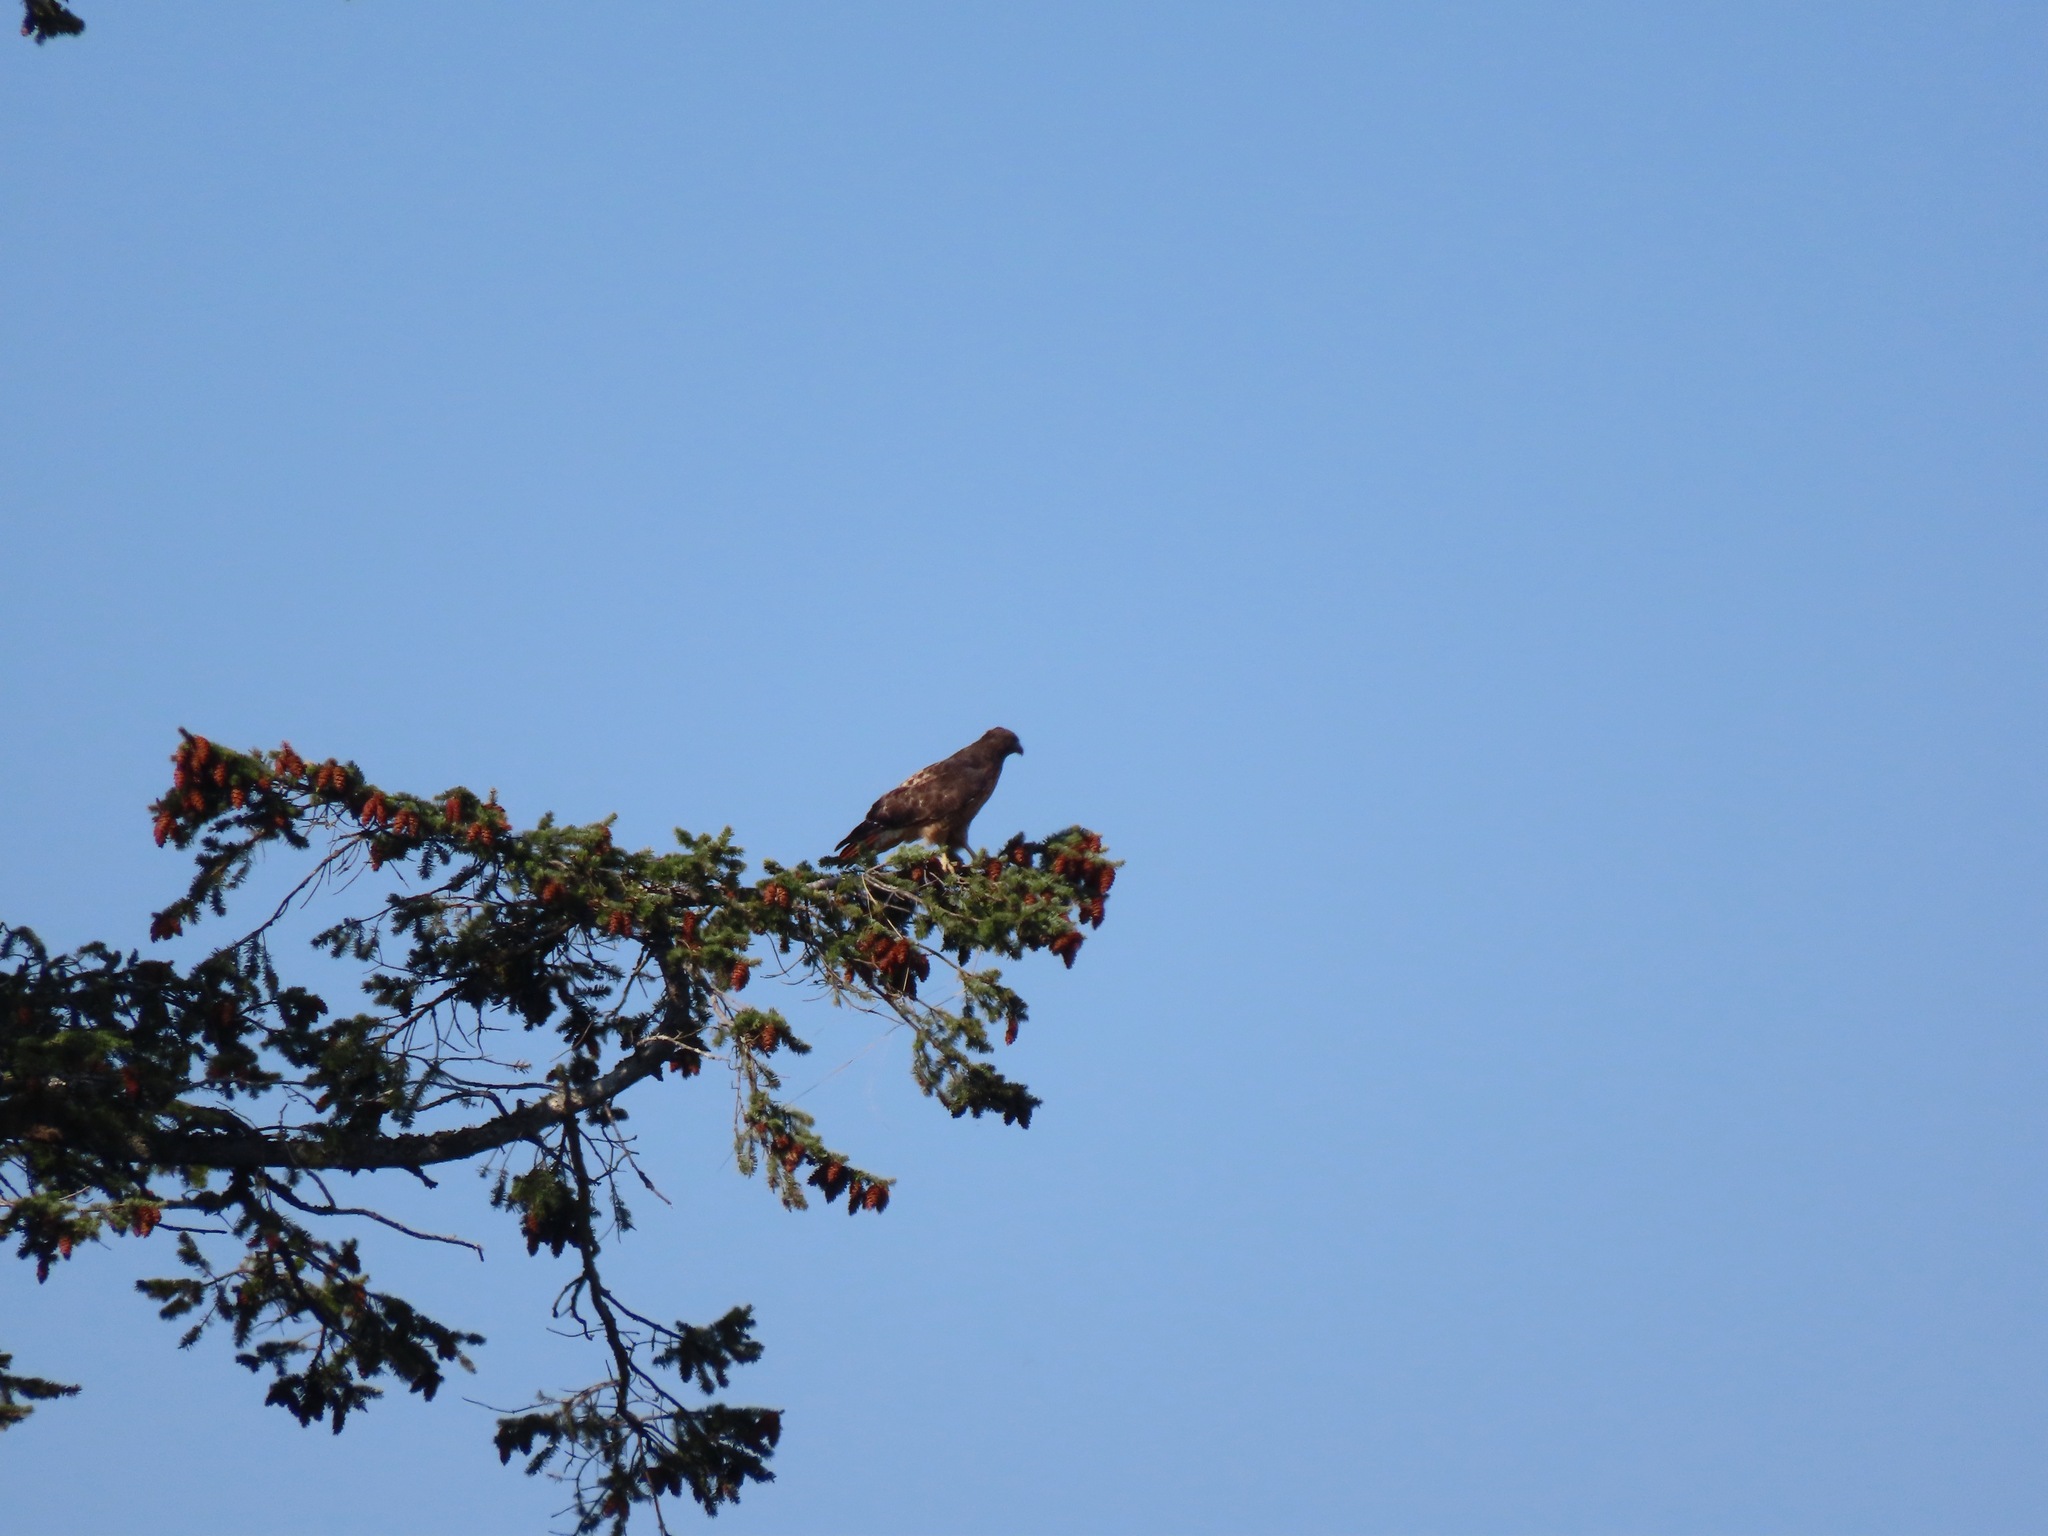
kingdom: Animalia
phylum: Chordata
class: Aves
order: Accipitriformes
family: Accipitridae
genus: Buteo
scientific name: Buteo jamaicensis
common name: Red-tailed hawk
